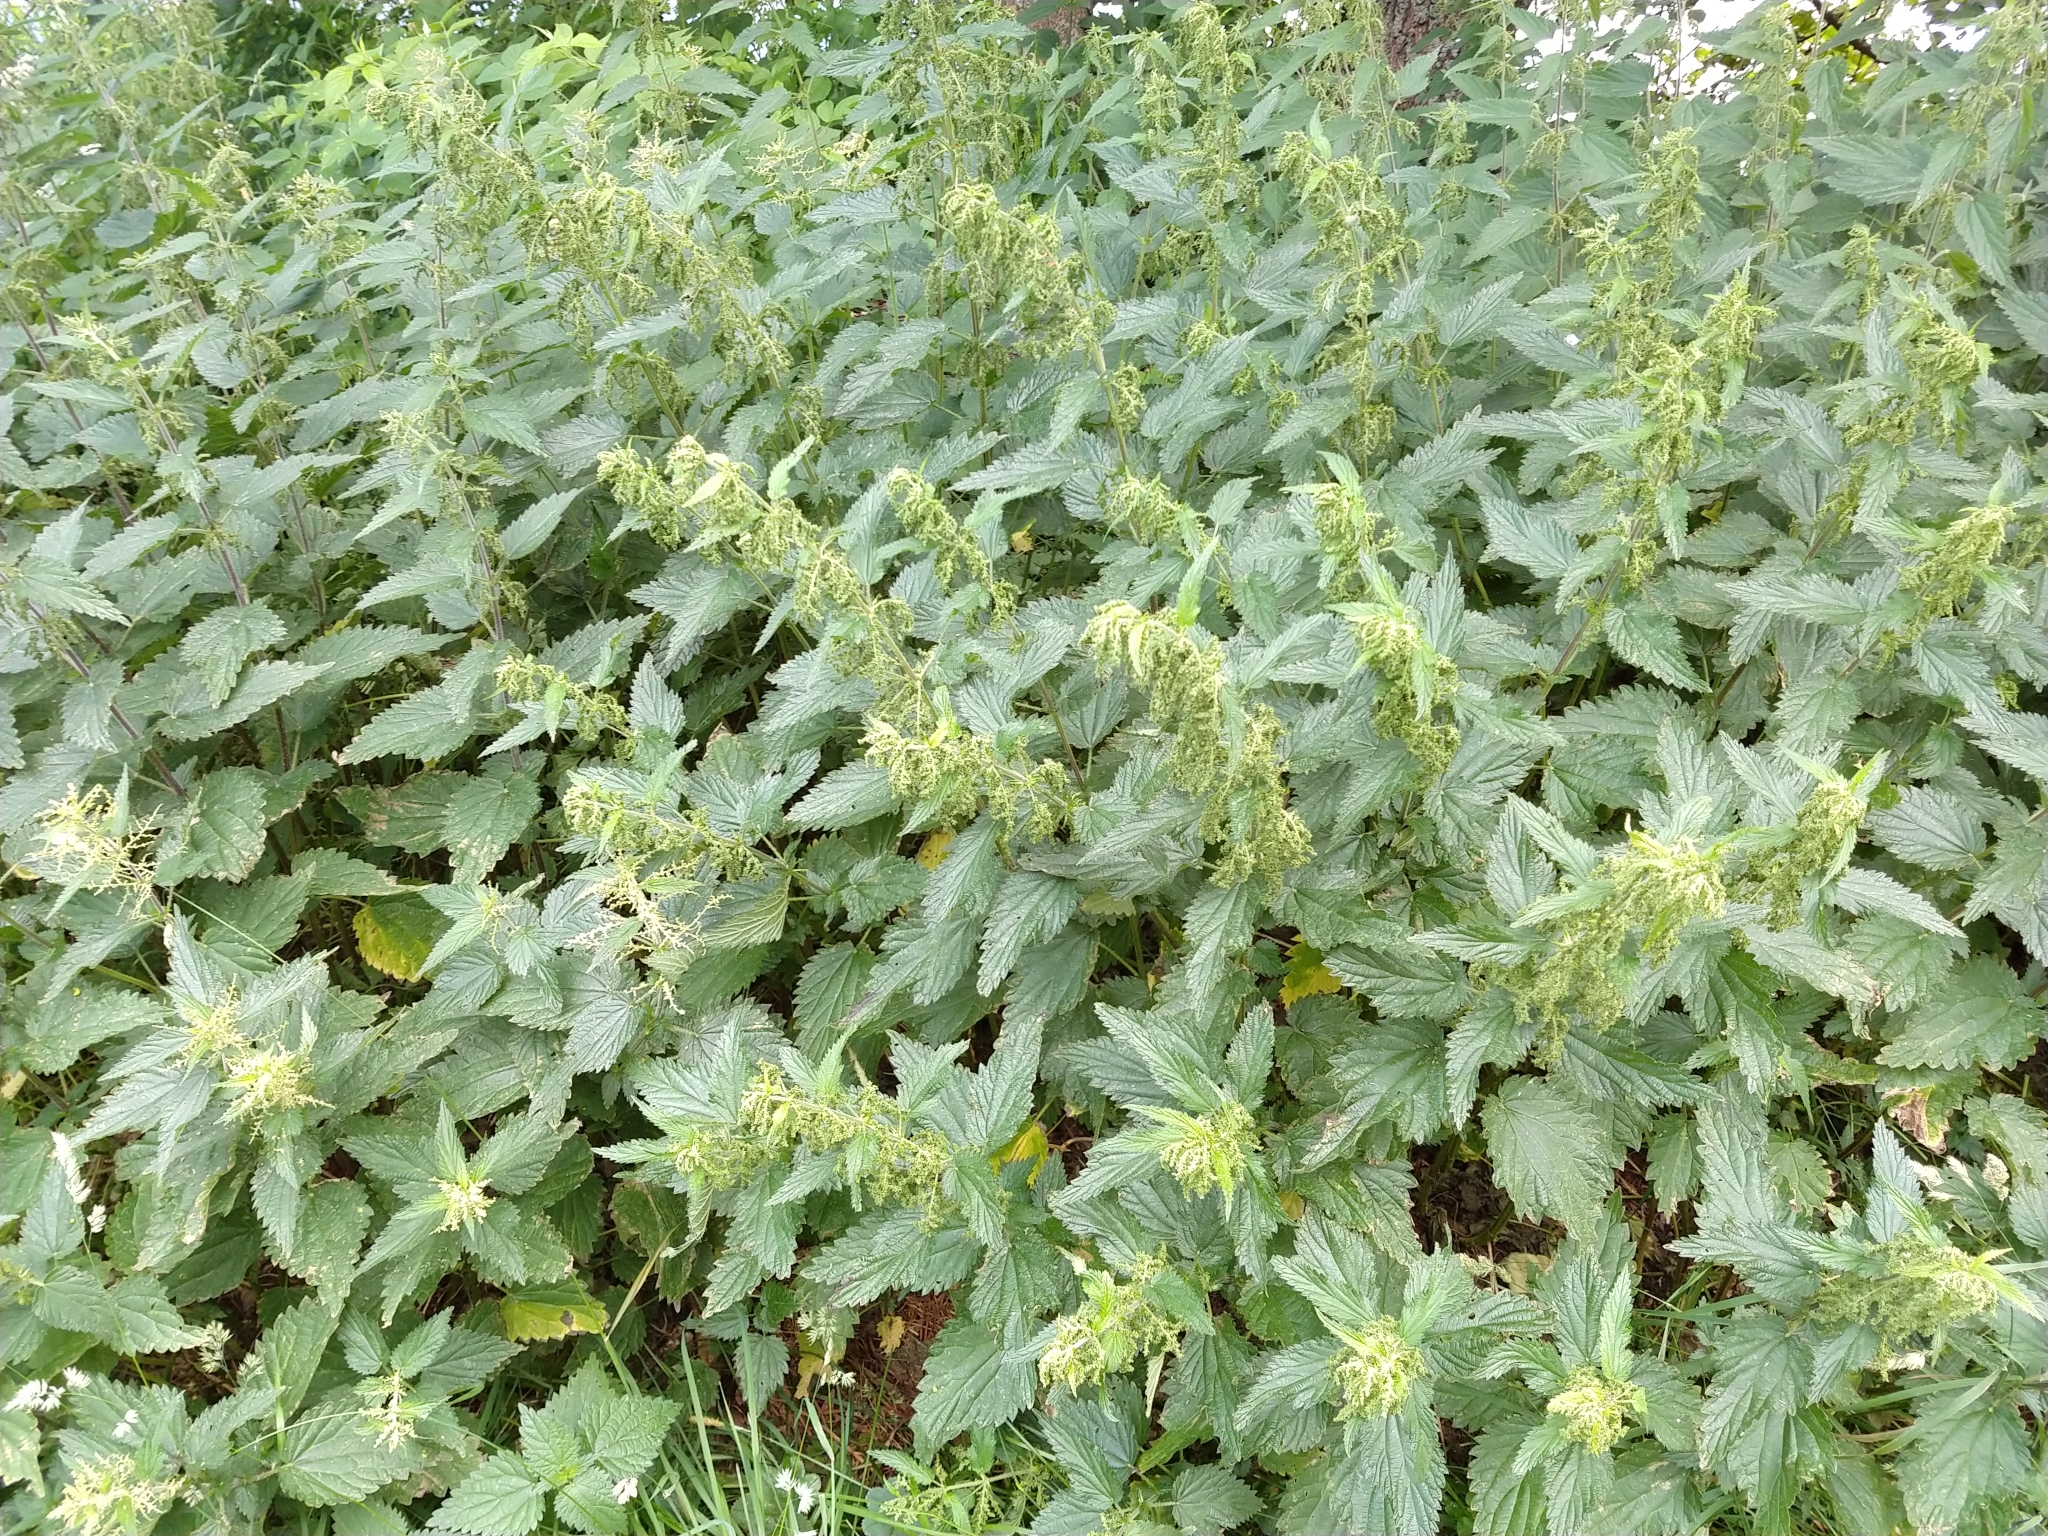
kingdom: Plantae
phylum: Tracheophyta
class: Magnoliopsida
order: Rosales
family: Urticaceae
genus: Urtica
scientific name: Urtica dioica
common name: Common nettle
